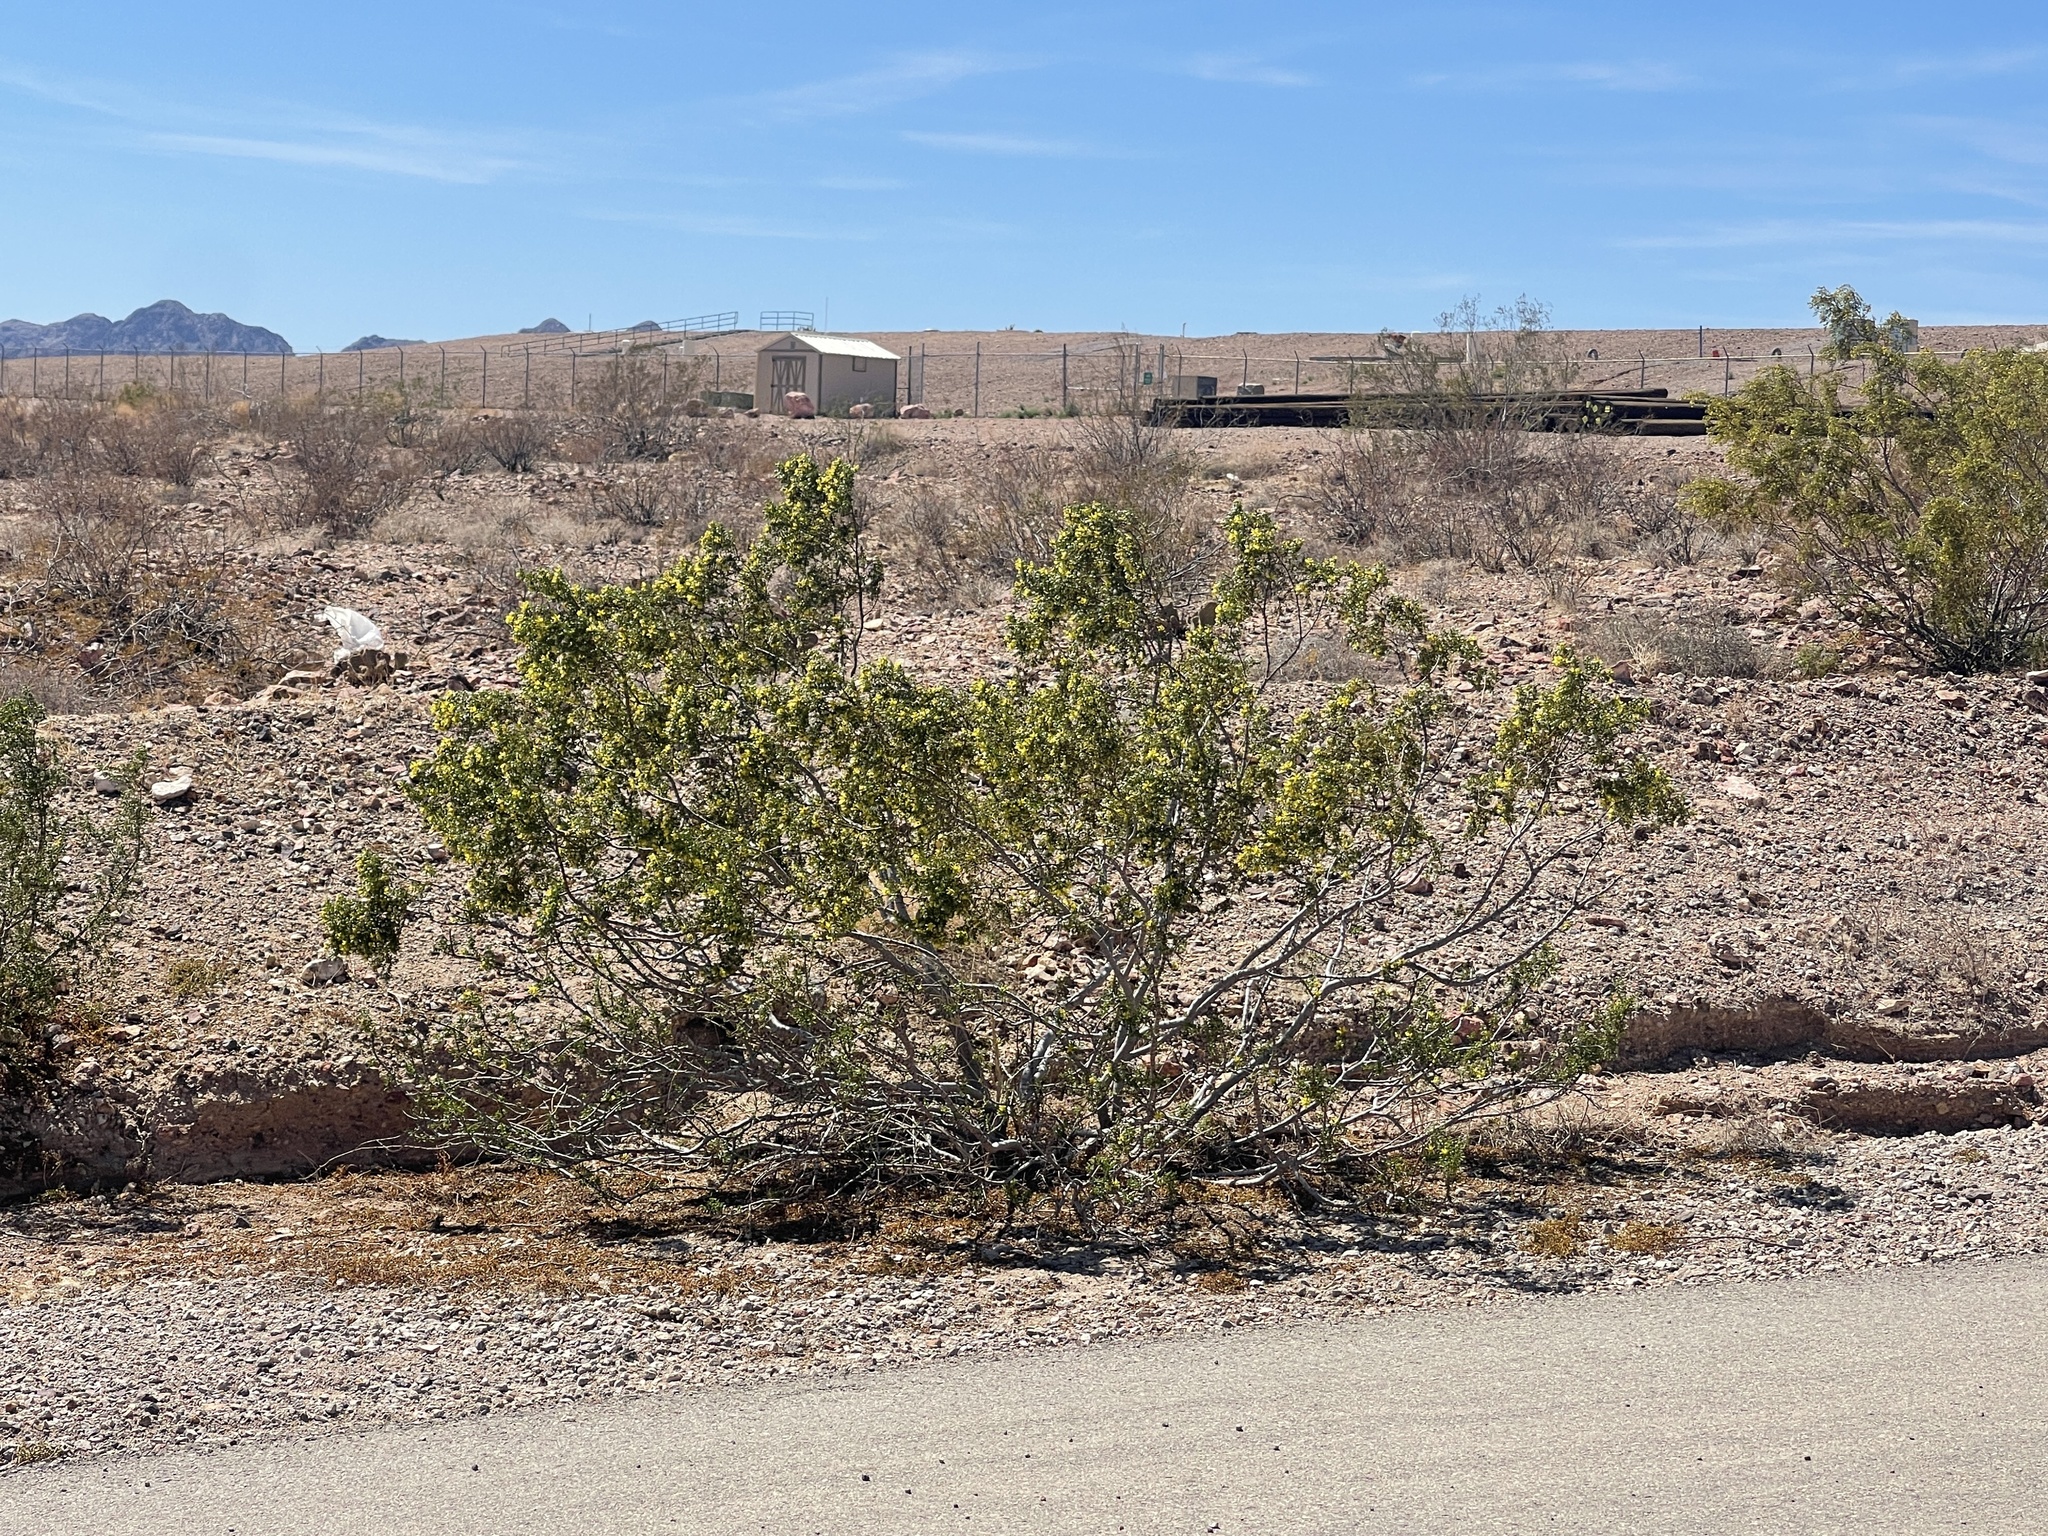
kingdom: Plantae
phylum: Tracheophyta
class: Magnoliopsida
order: Zygophyllales
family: Zygophyllaceae
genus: Larrea
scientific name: Larrea tridentata
